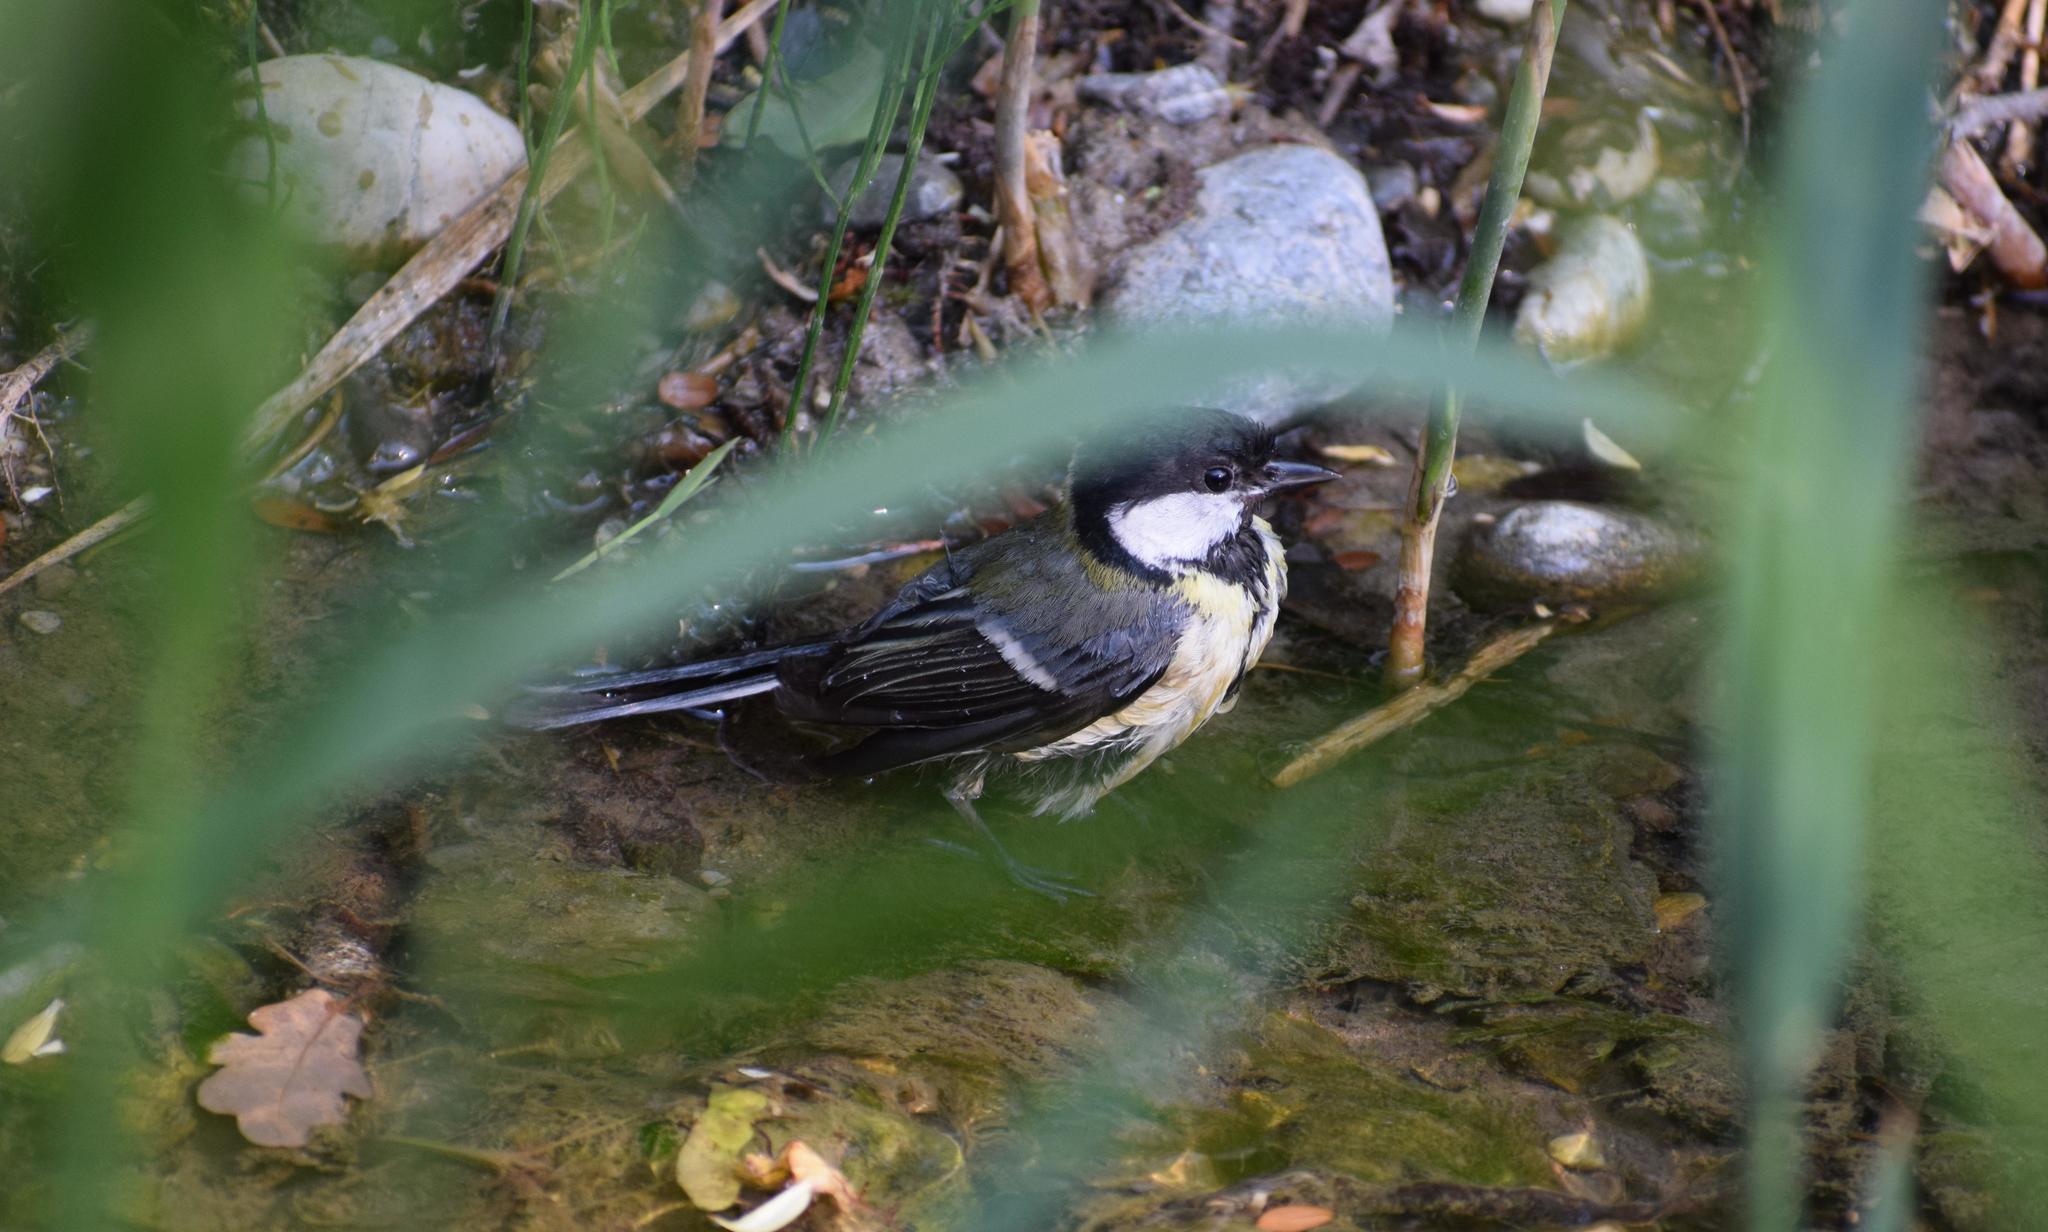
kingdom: Animalia
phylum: Chordata
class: Aves
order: Passeriformes
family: Paridae
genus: Parus
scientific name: Parus major
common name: Great tit
